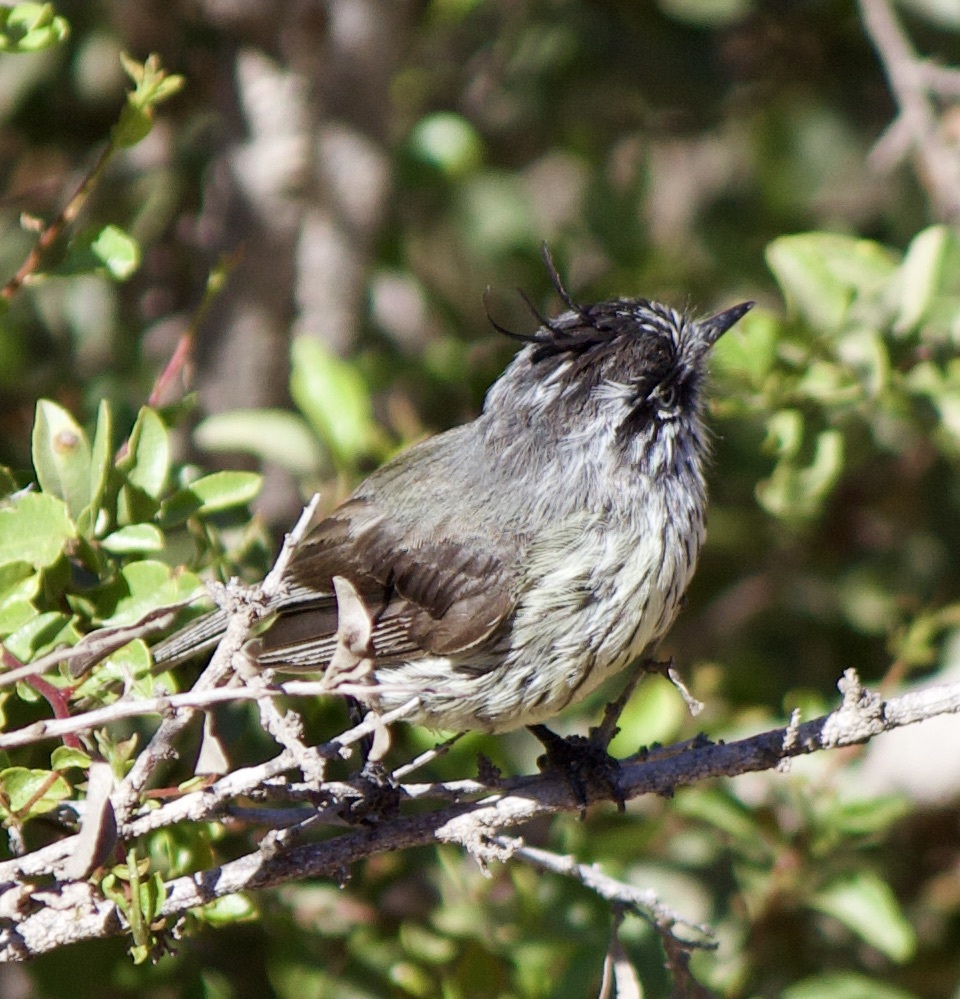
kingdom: Animalia
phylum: Chordata
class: Aves
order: Passeriformes
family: Tyrannidae
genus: Anairetes
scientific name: Anairetes parulus
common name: Tufted tit-tyrant
